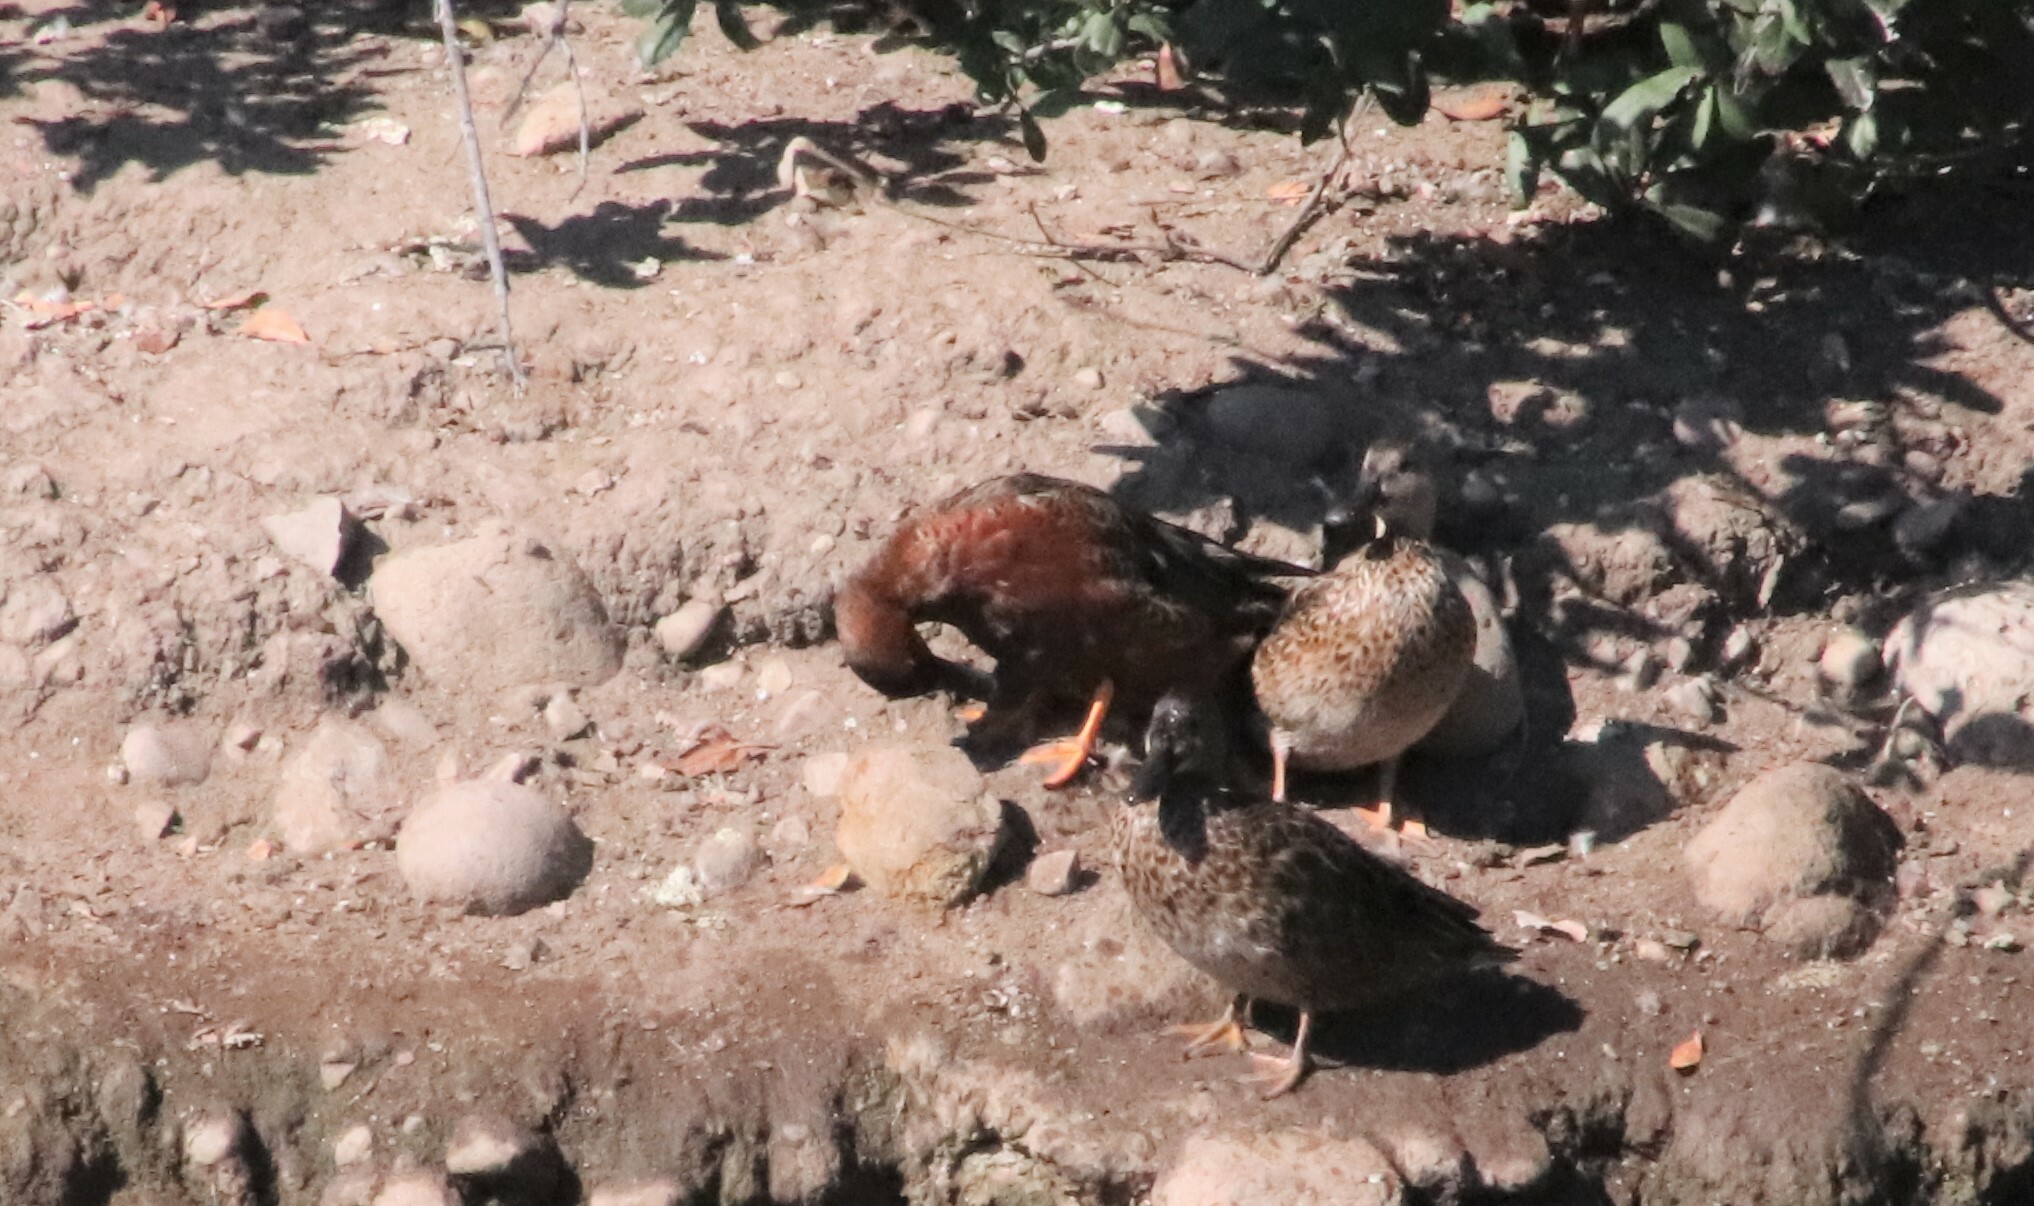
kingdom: Animalia
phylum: Chordata
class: Aves
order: Anseriformes
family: Anatidae
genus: Spatula
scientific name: Spatula cyanoptera
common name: Cinnamon teal
